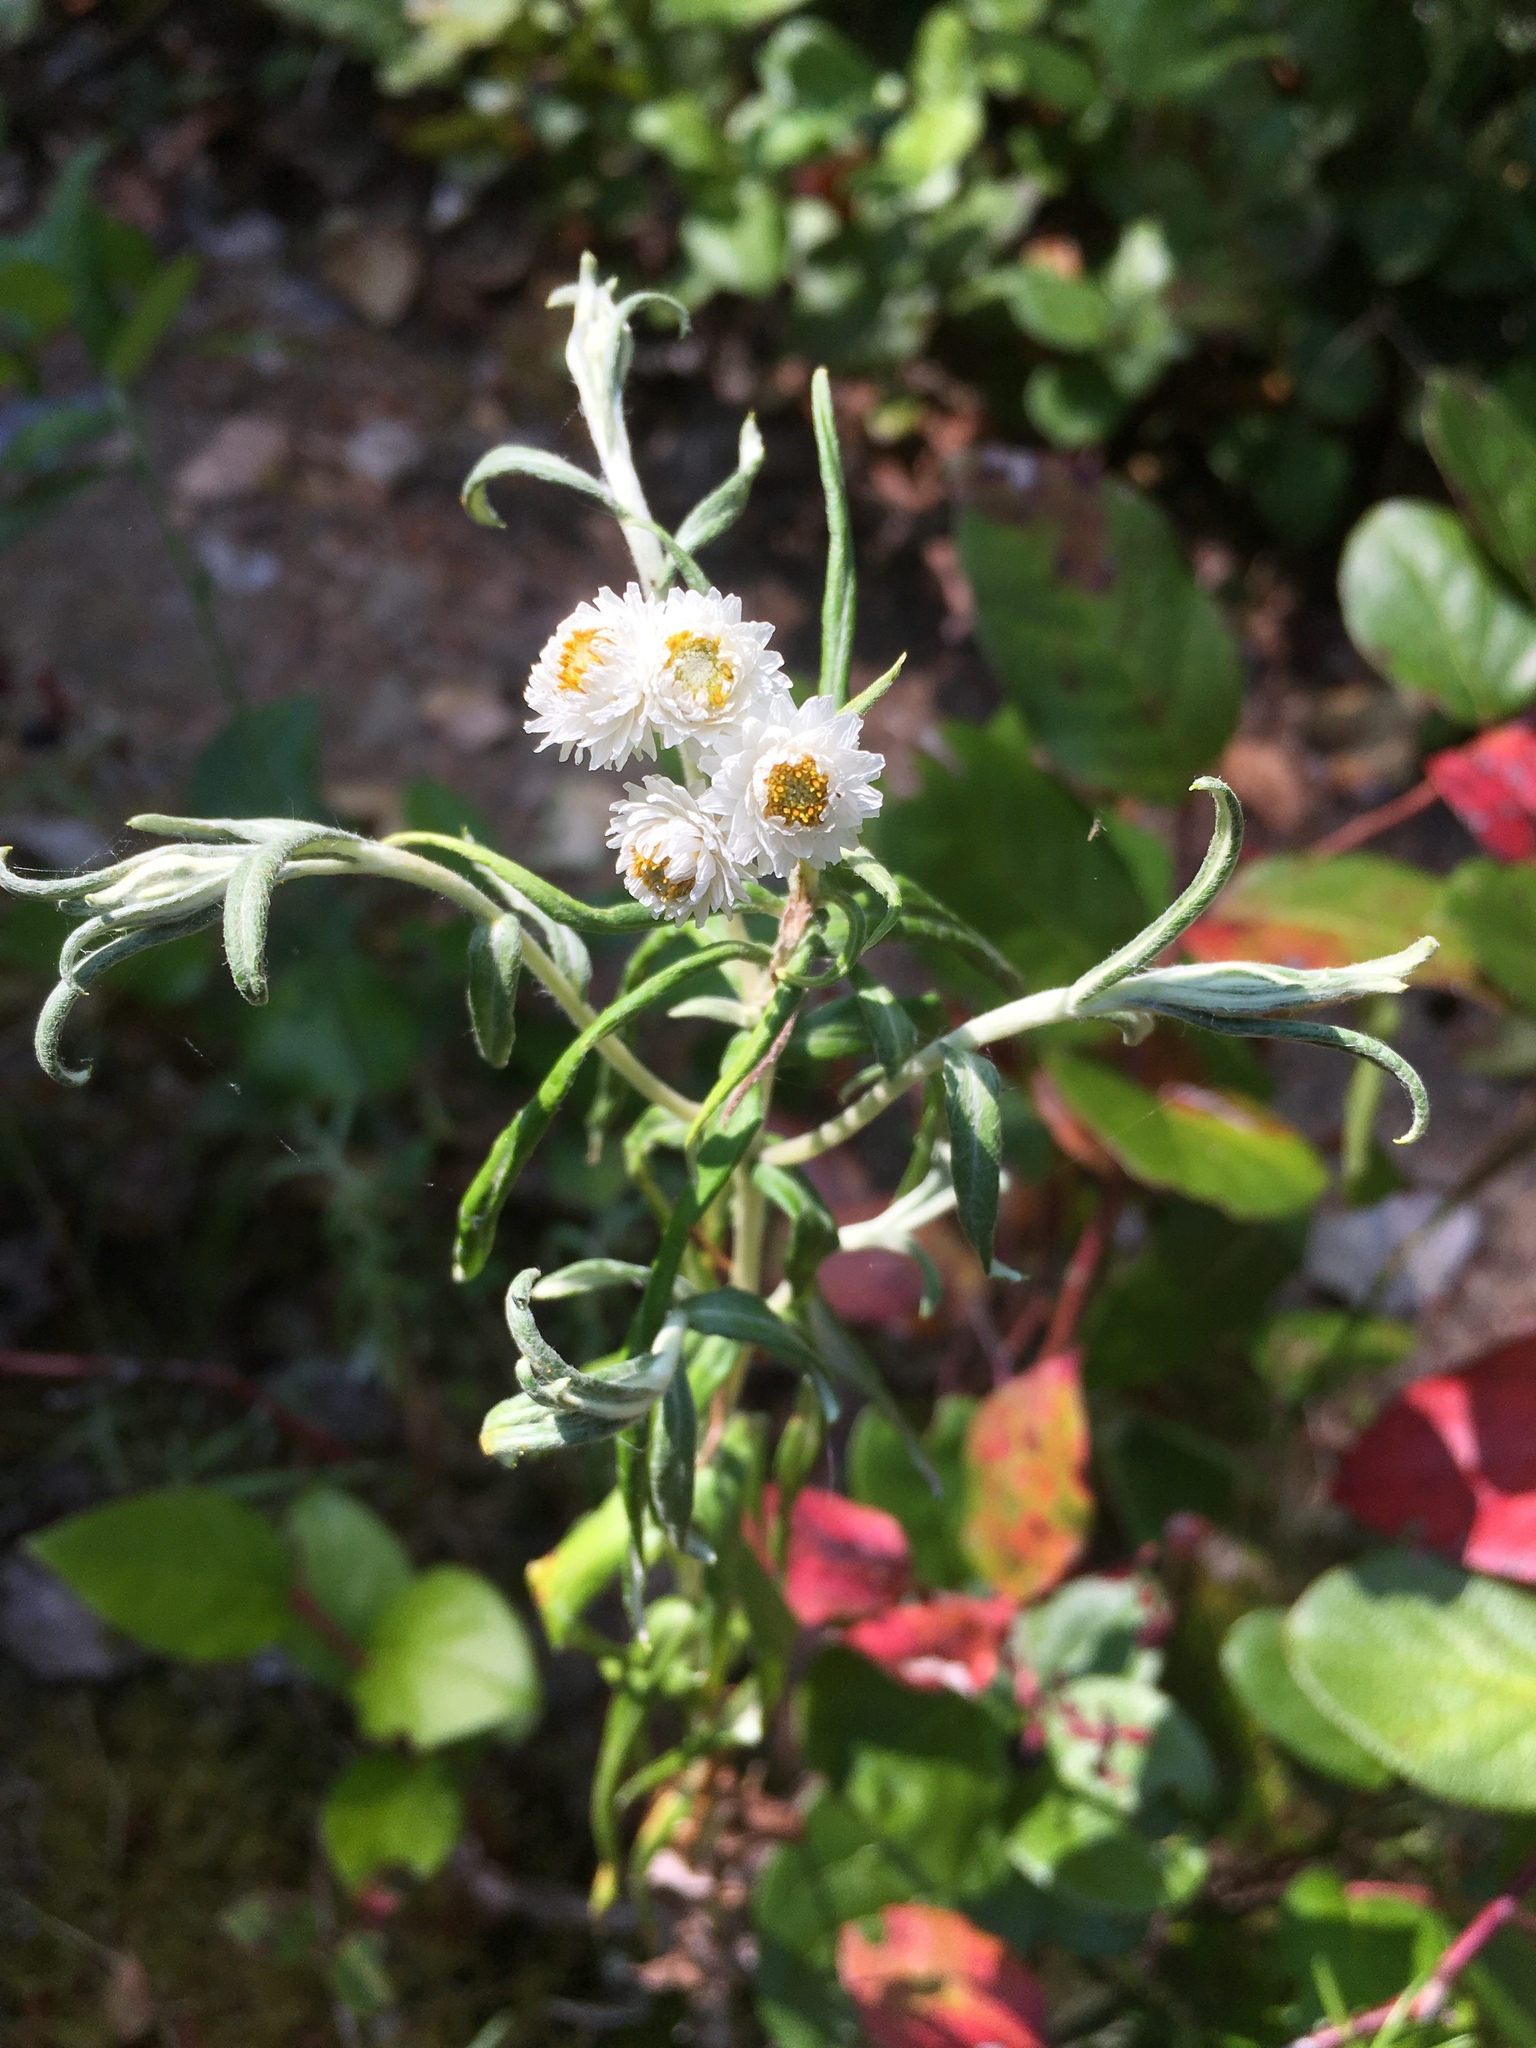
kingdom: Plantae
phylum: Tracheophyta
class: Magnoliopsida
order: Asterales
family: Asteraceae
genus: Anaphalis
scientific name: Anaphalis margaritacea
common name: Pearly everlasting
